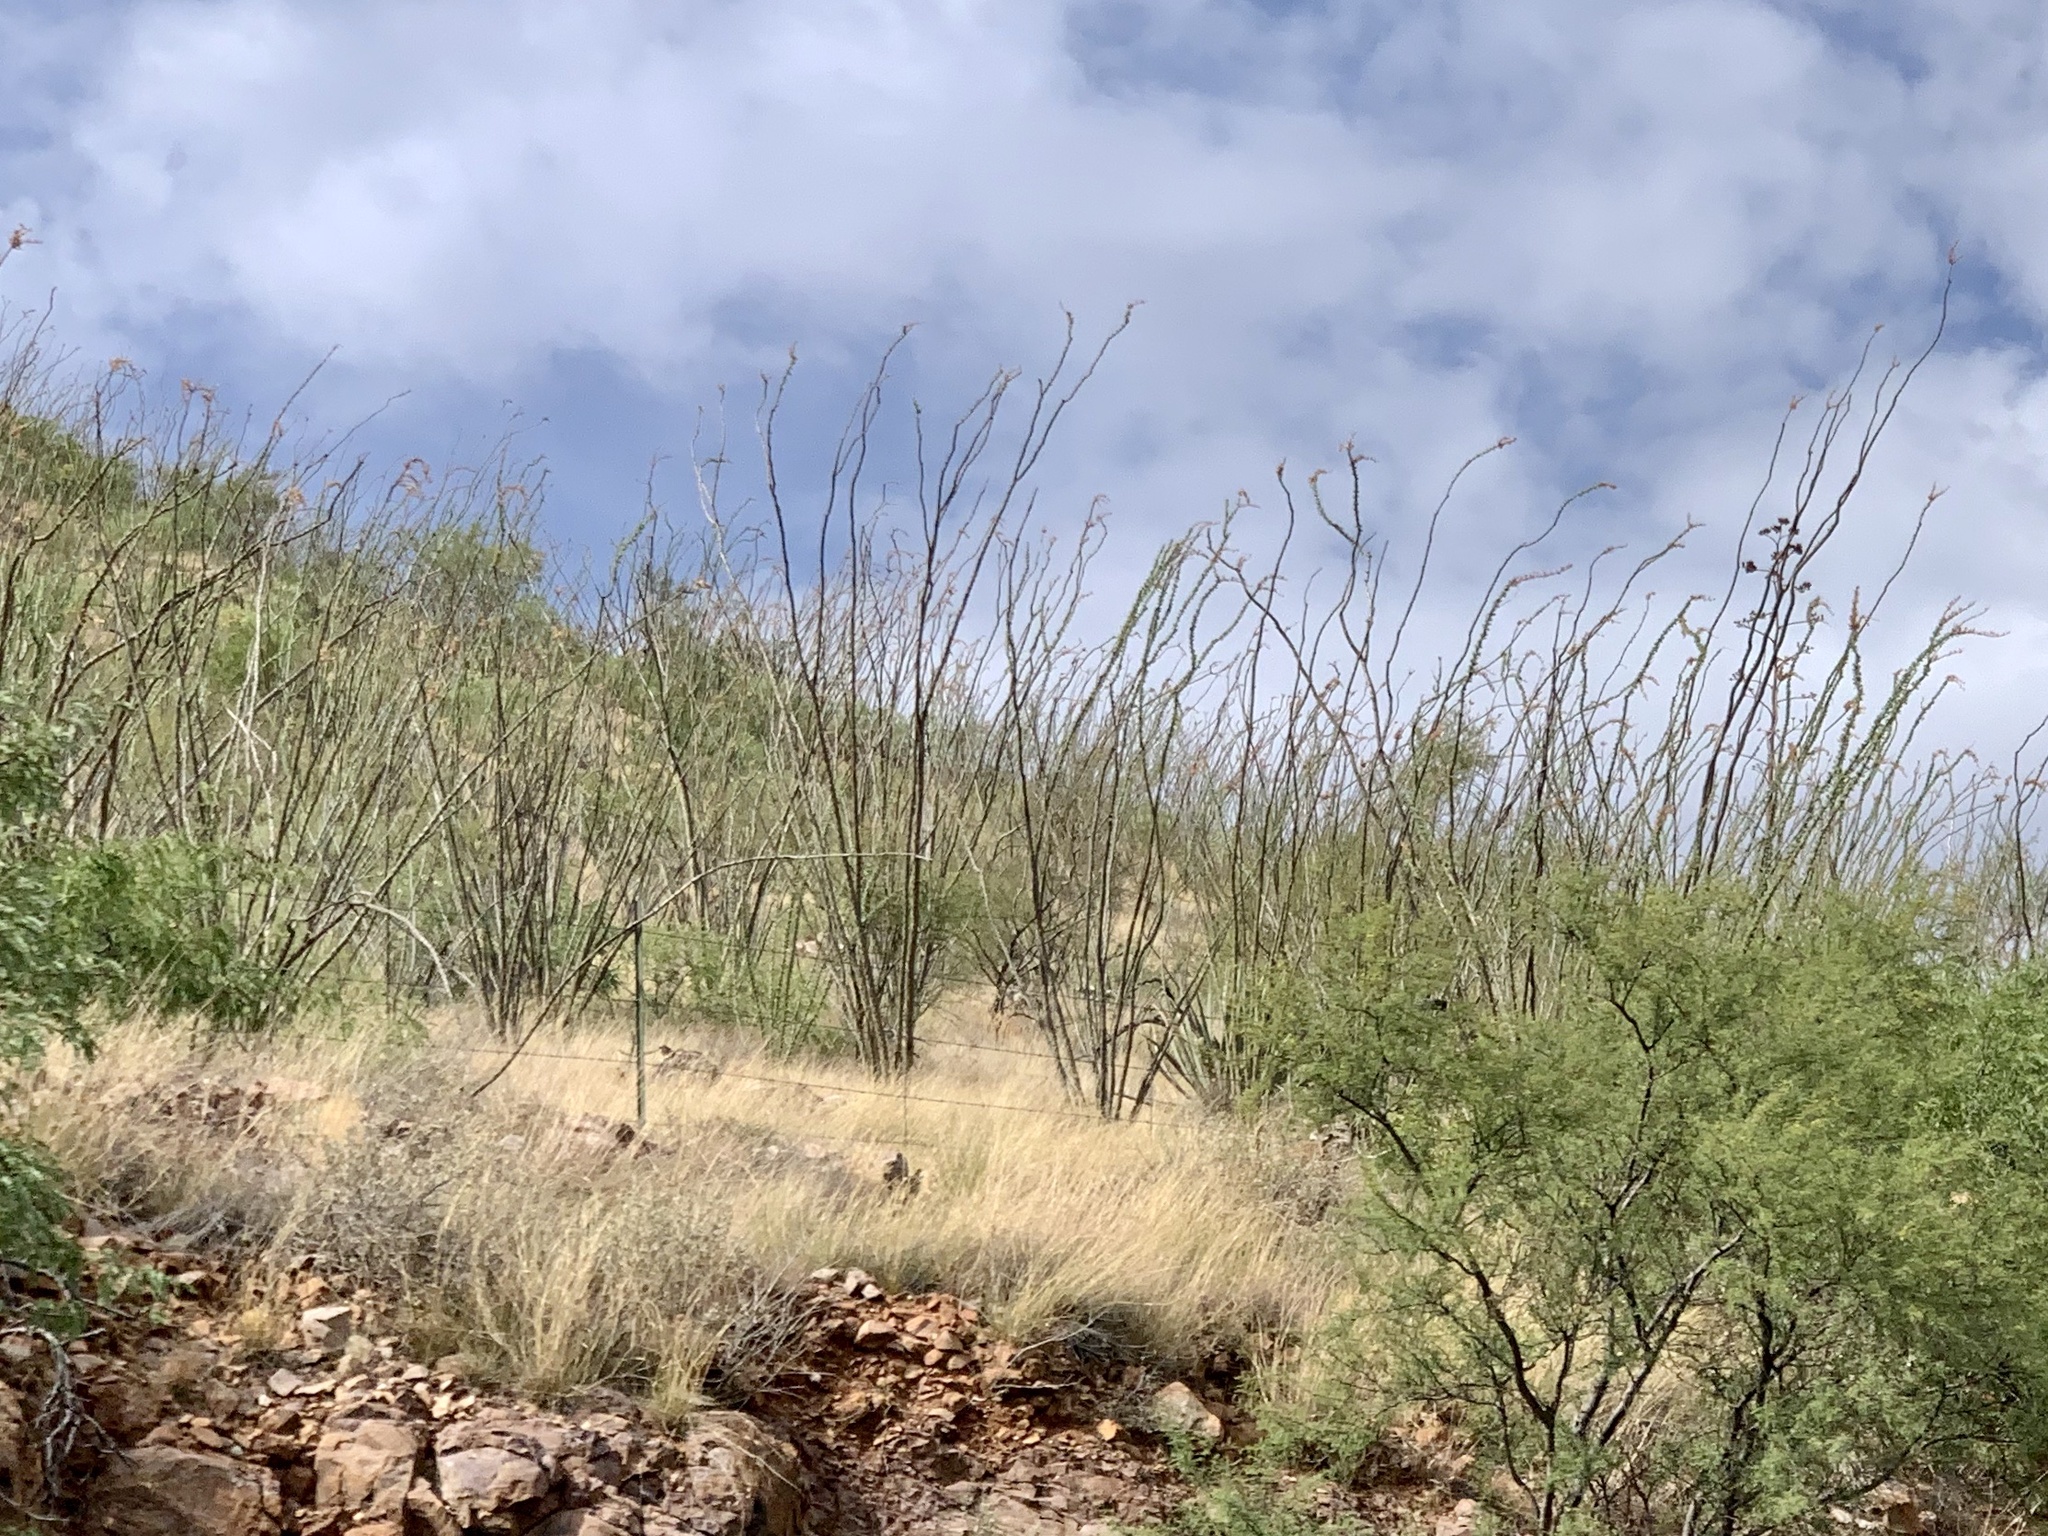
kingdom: Plantae
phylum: Tracheophyta
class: Magnoliopsida
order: Ericales
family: Fouquieriaceae
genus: Fouquieria
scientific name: Fouquieria splendens
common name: Vine-cactus
